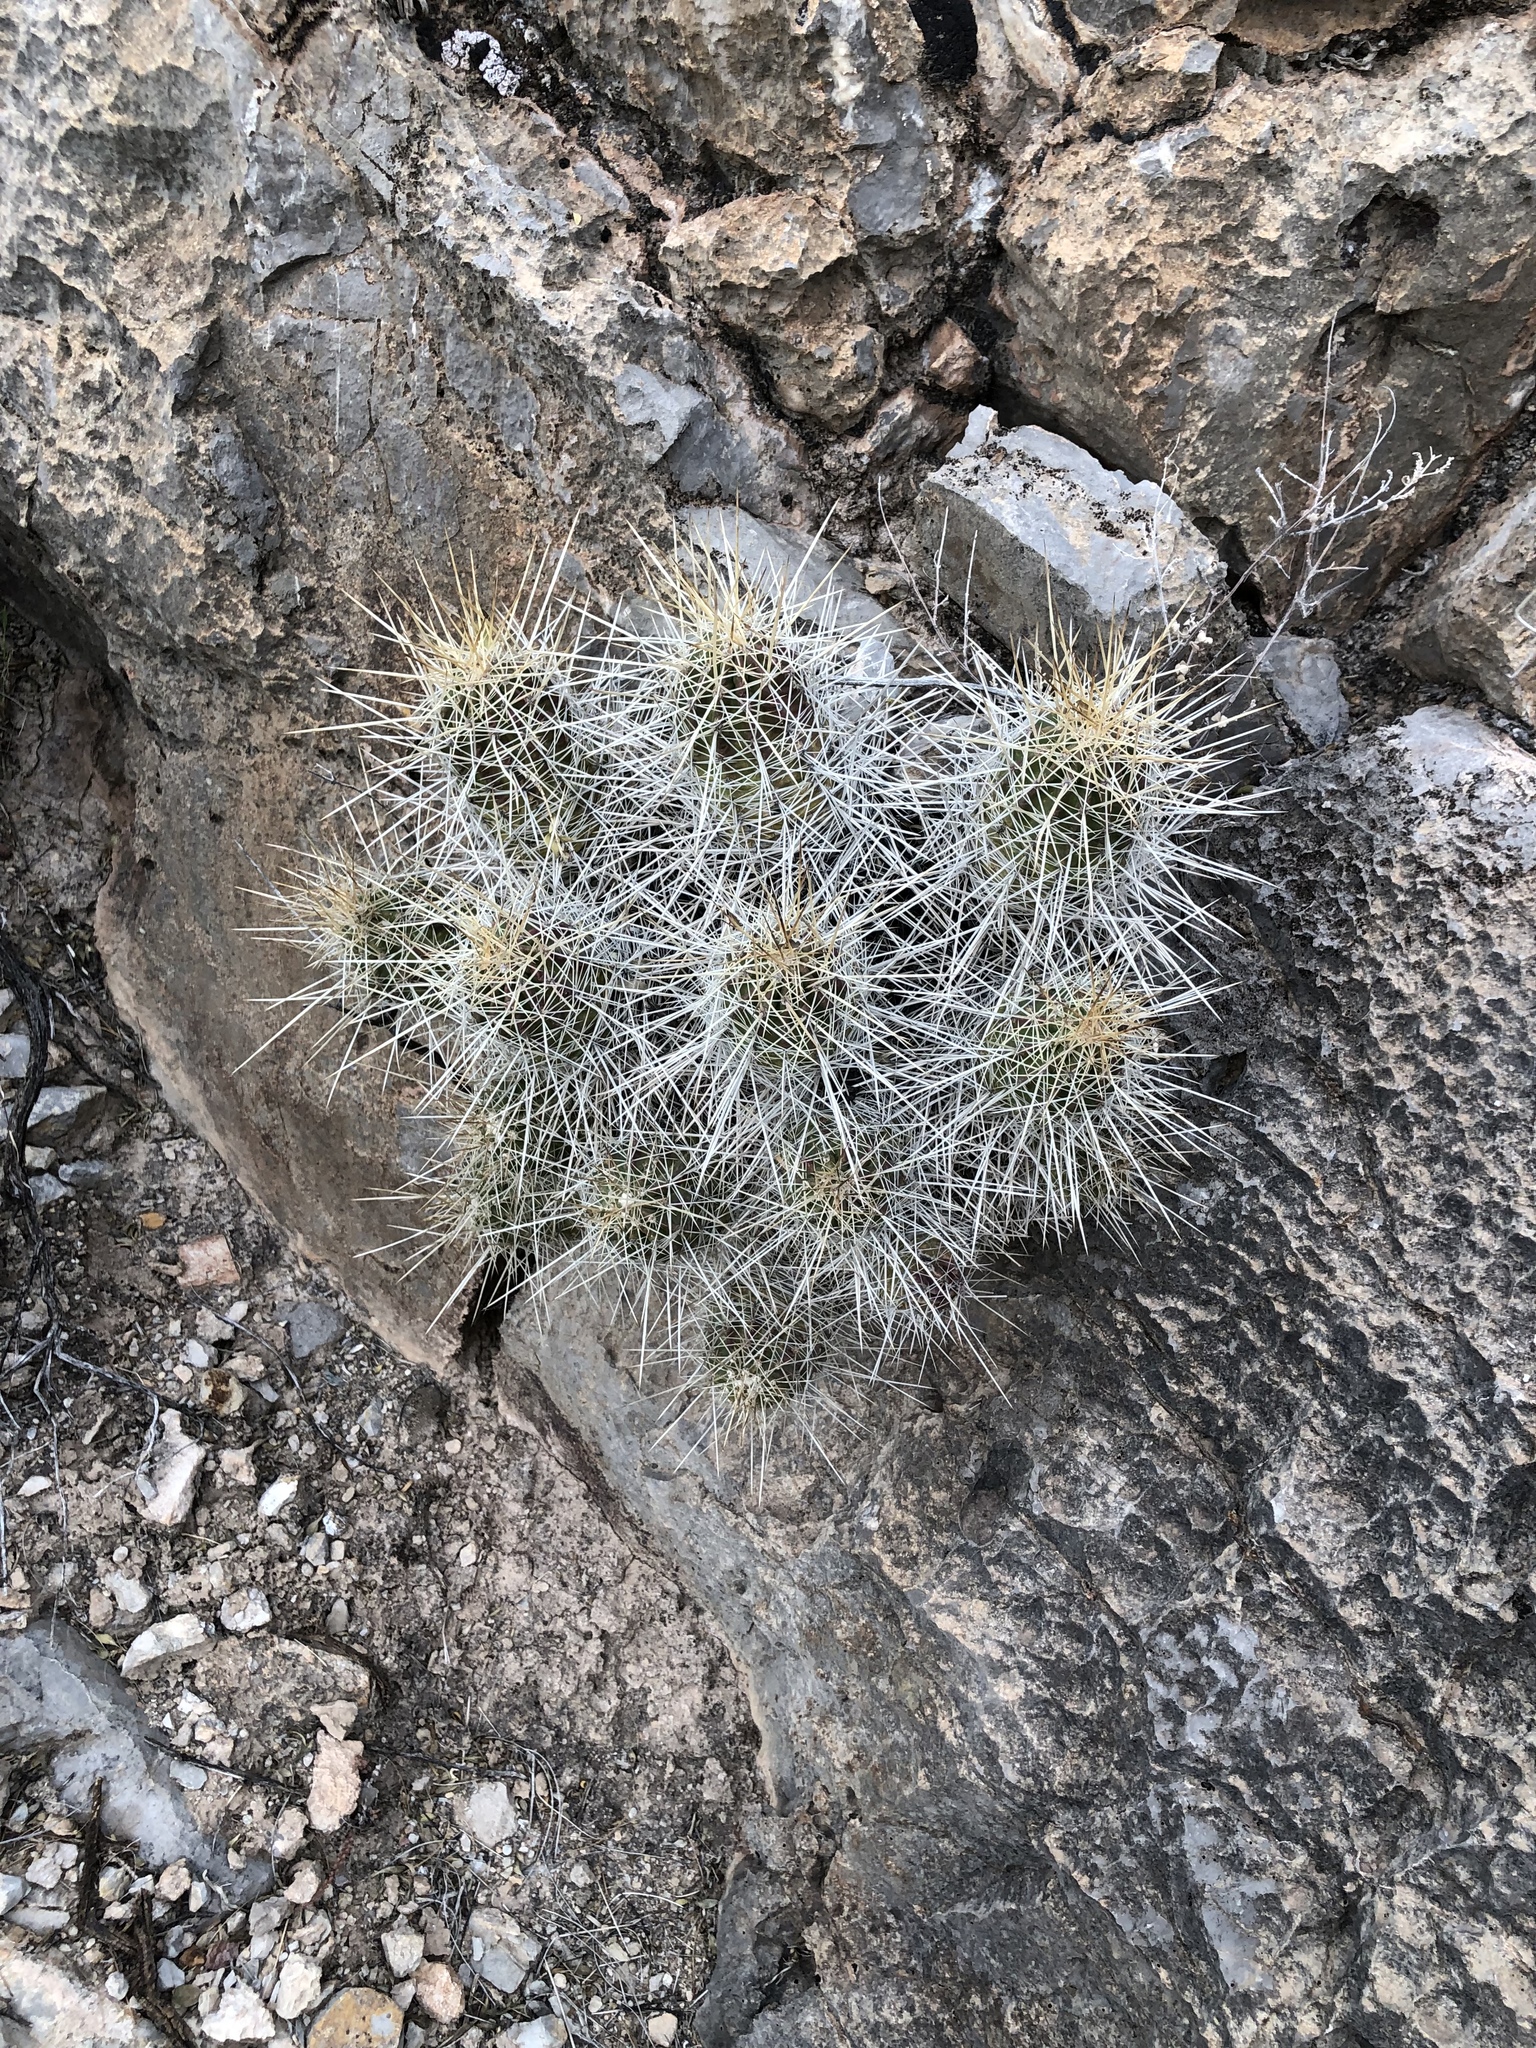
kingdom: Plantae
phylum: Tracheophyta
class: Magnoliopsida
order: Caryophyllales
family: Cactaceae
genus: Echinocereus
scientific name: Echinocereus stramineus
